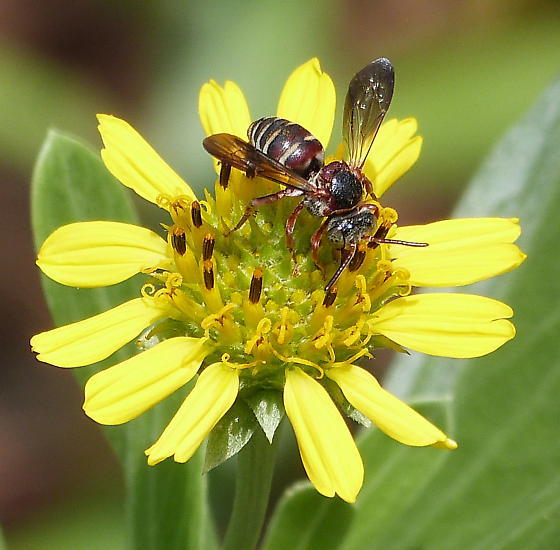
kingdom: Animalia
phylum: Arthropoda
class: Insecta
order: Hymenoptera
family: Apidae
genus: Epeolus
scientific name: Epeolus zonatus
